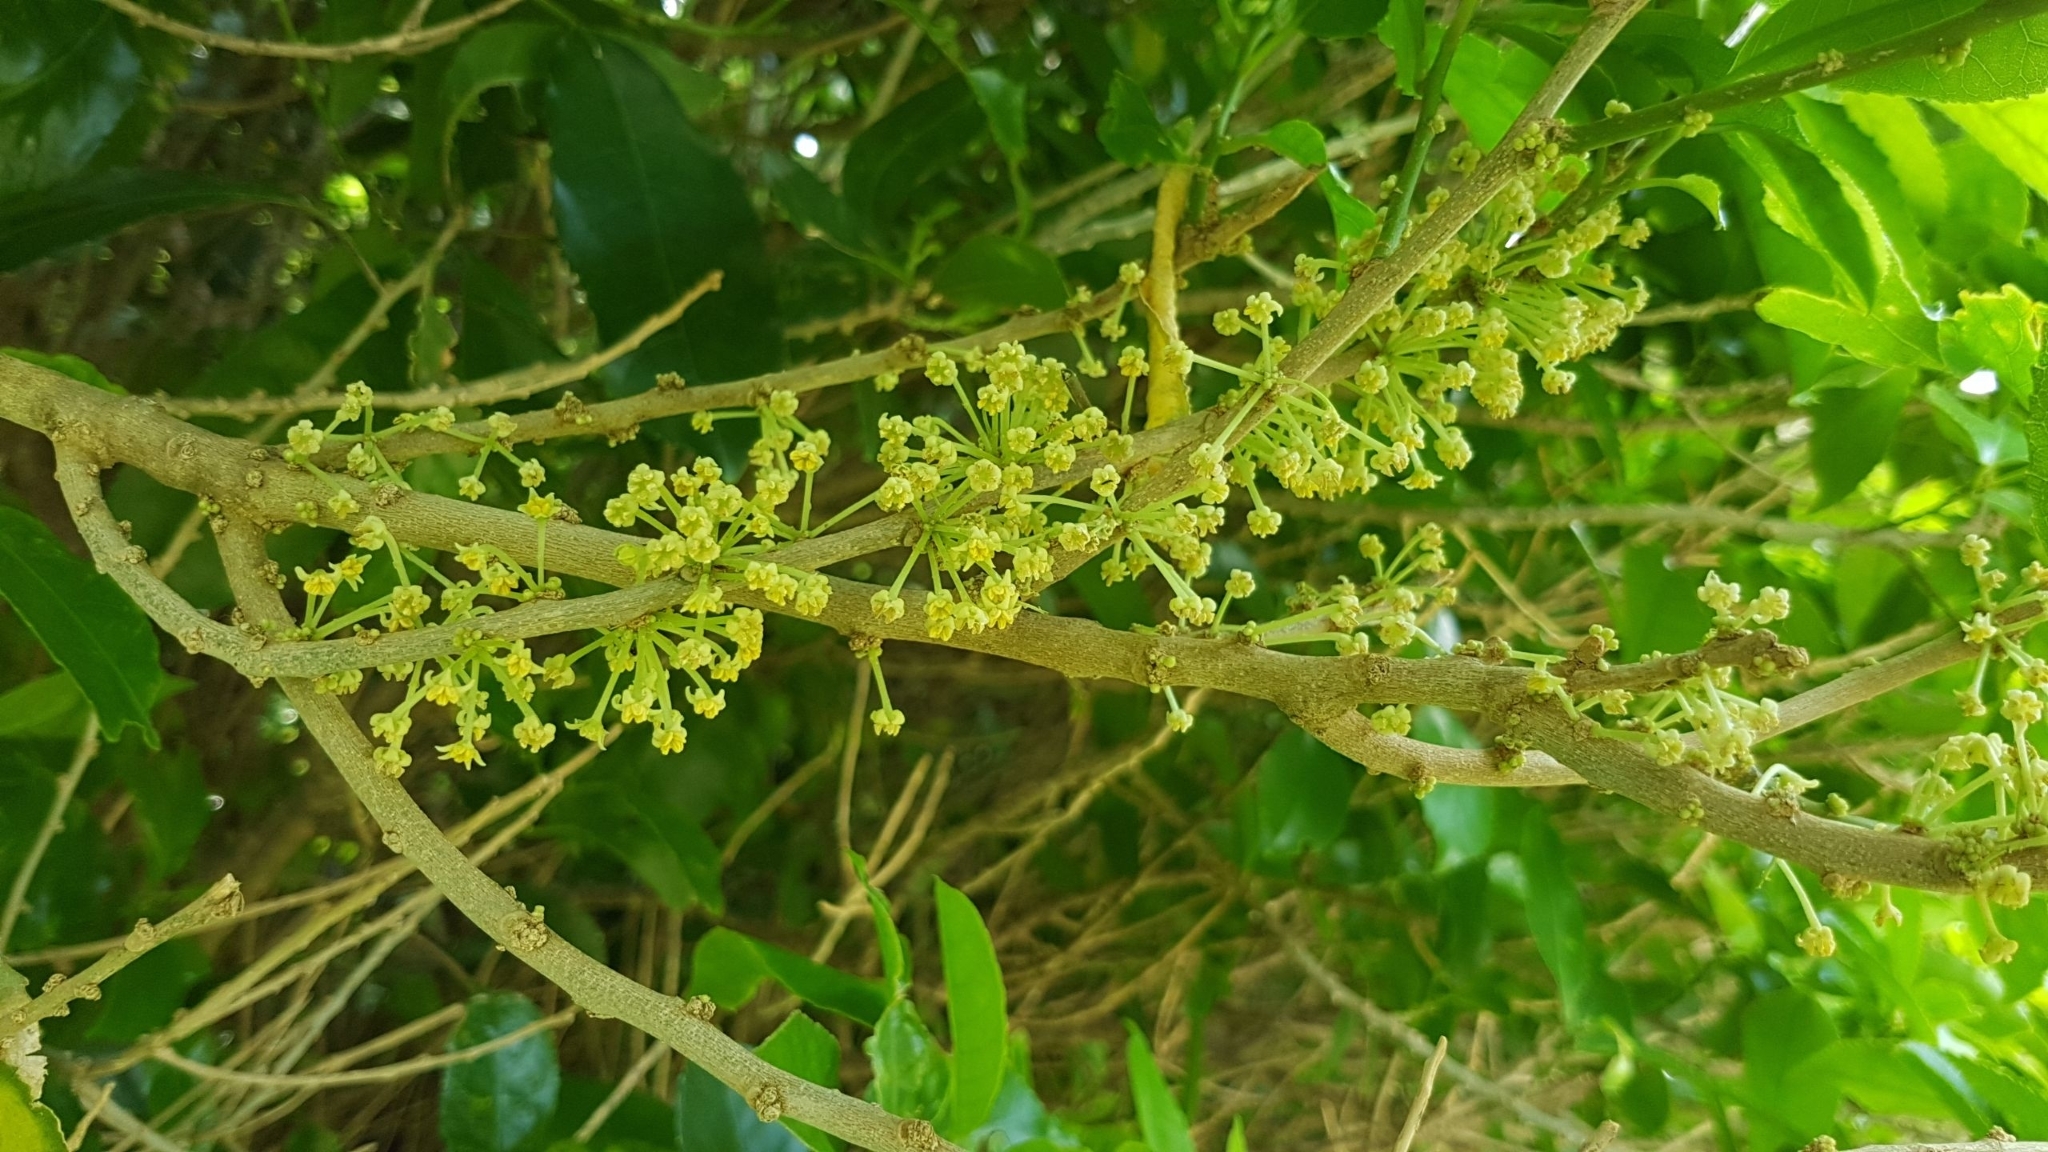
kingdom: Plantae
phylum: Tracheophyta
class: Magnoliopsida
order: Malpighiales
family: Violaceae
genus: Melicytus
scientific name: Melicytus ramiflorus
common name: Mahoe
